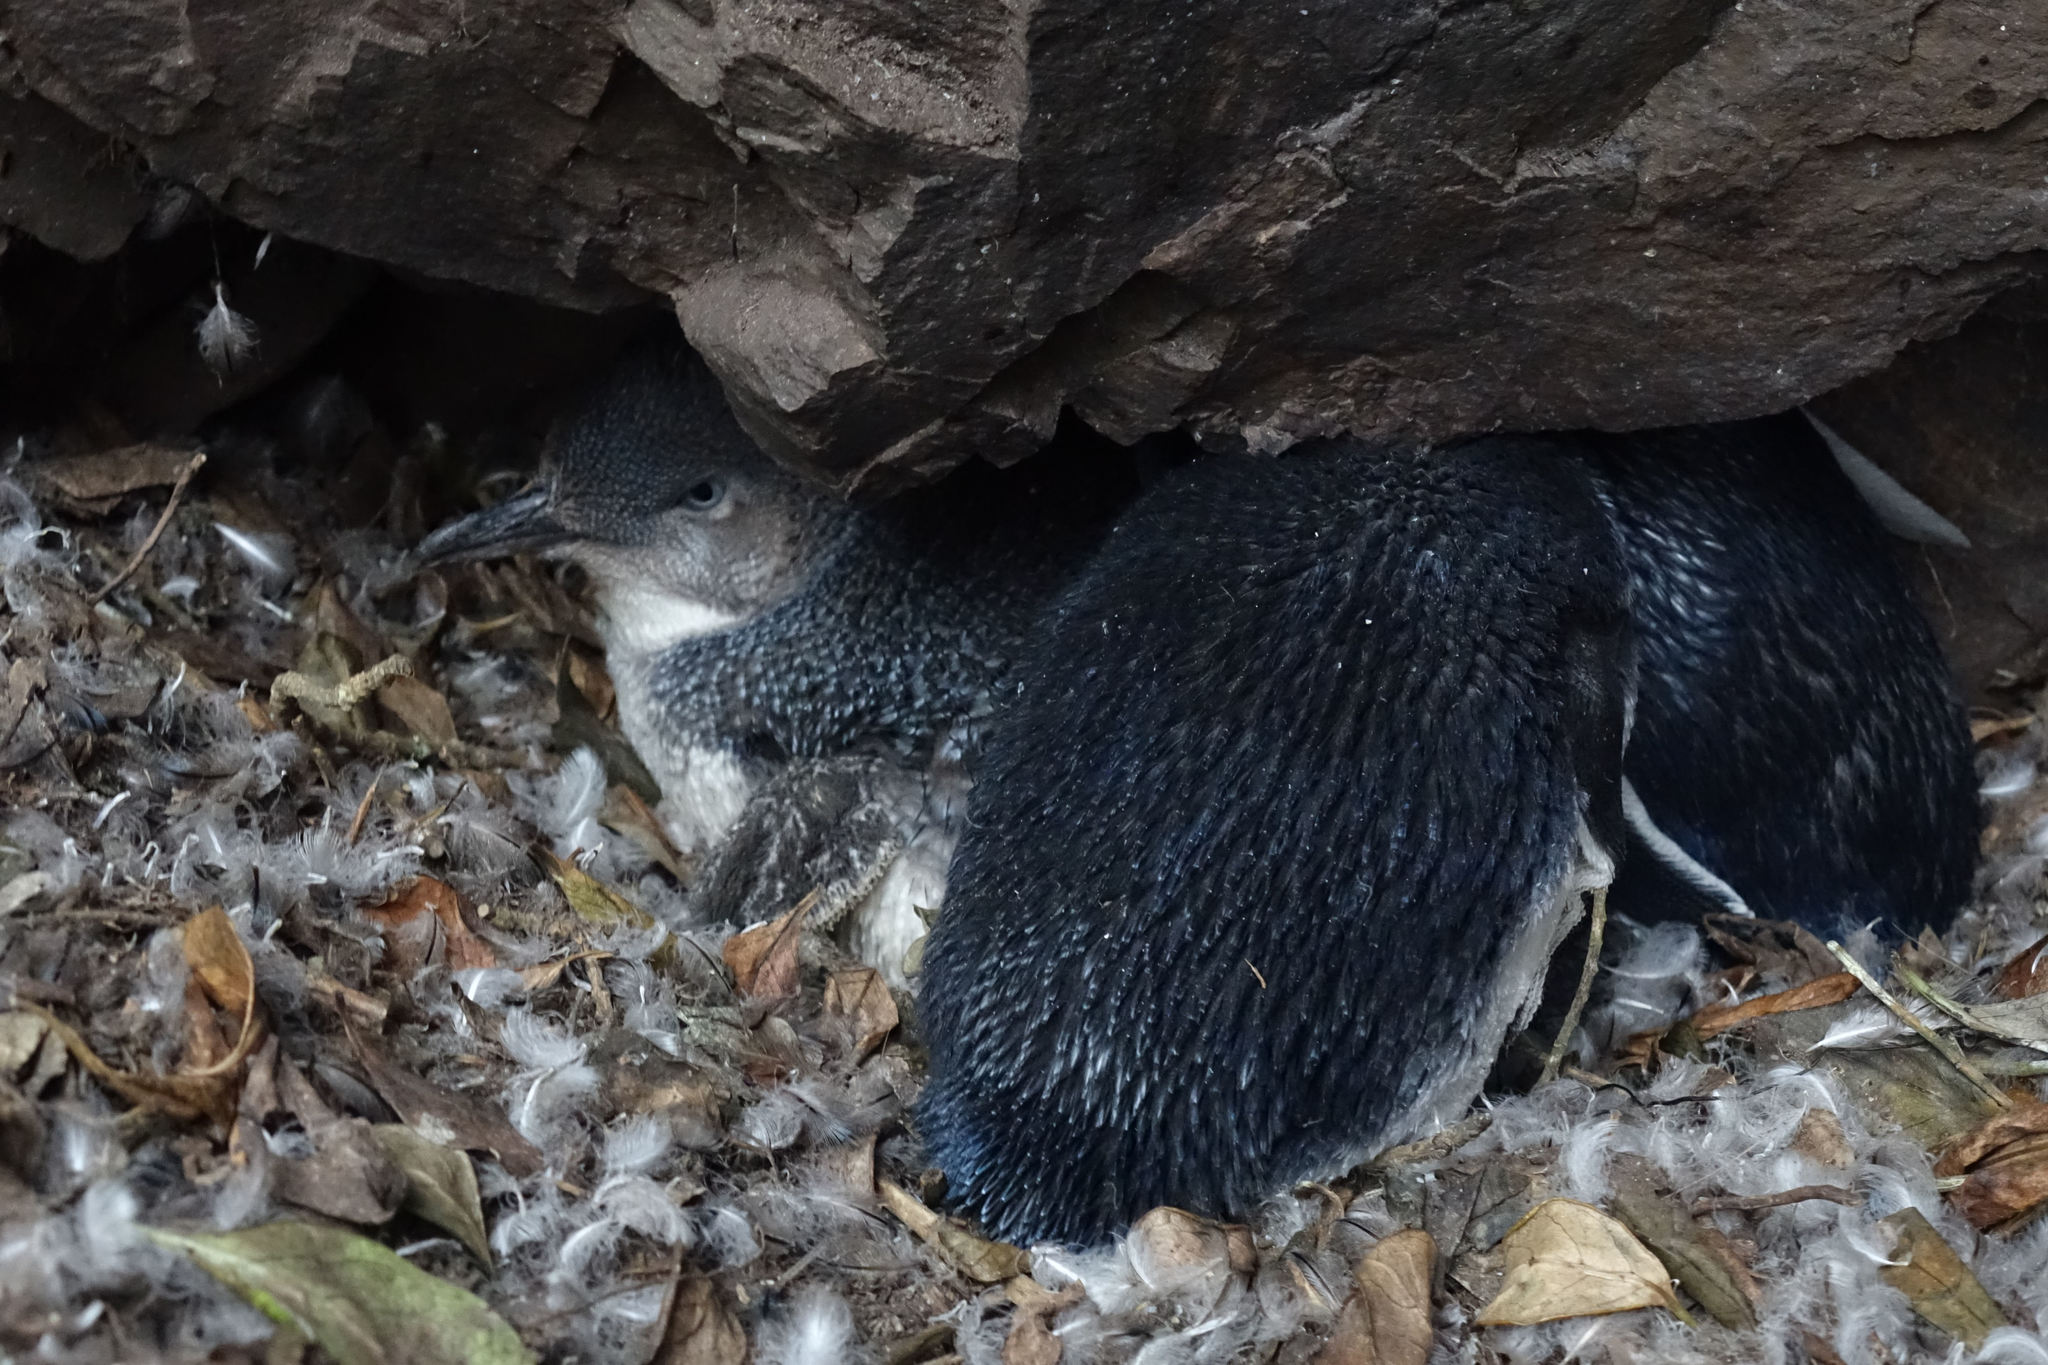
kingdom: Animalia
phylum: Chordata
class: Aves
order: Sphenisciformes
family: Spheniscidae
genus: Eudyptula
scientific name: Eudyptula minor
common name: Little penguin
